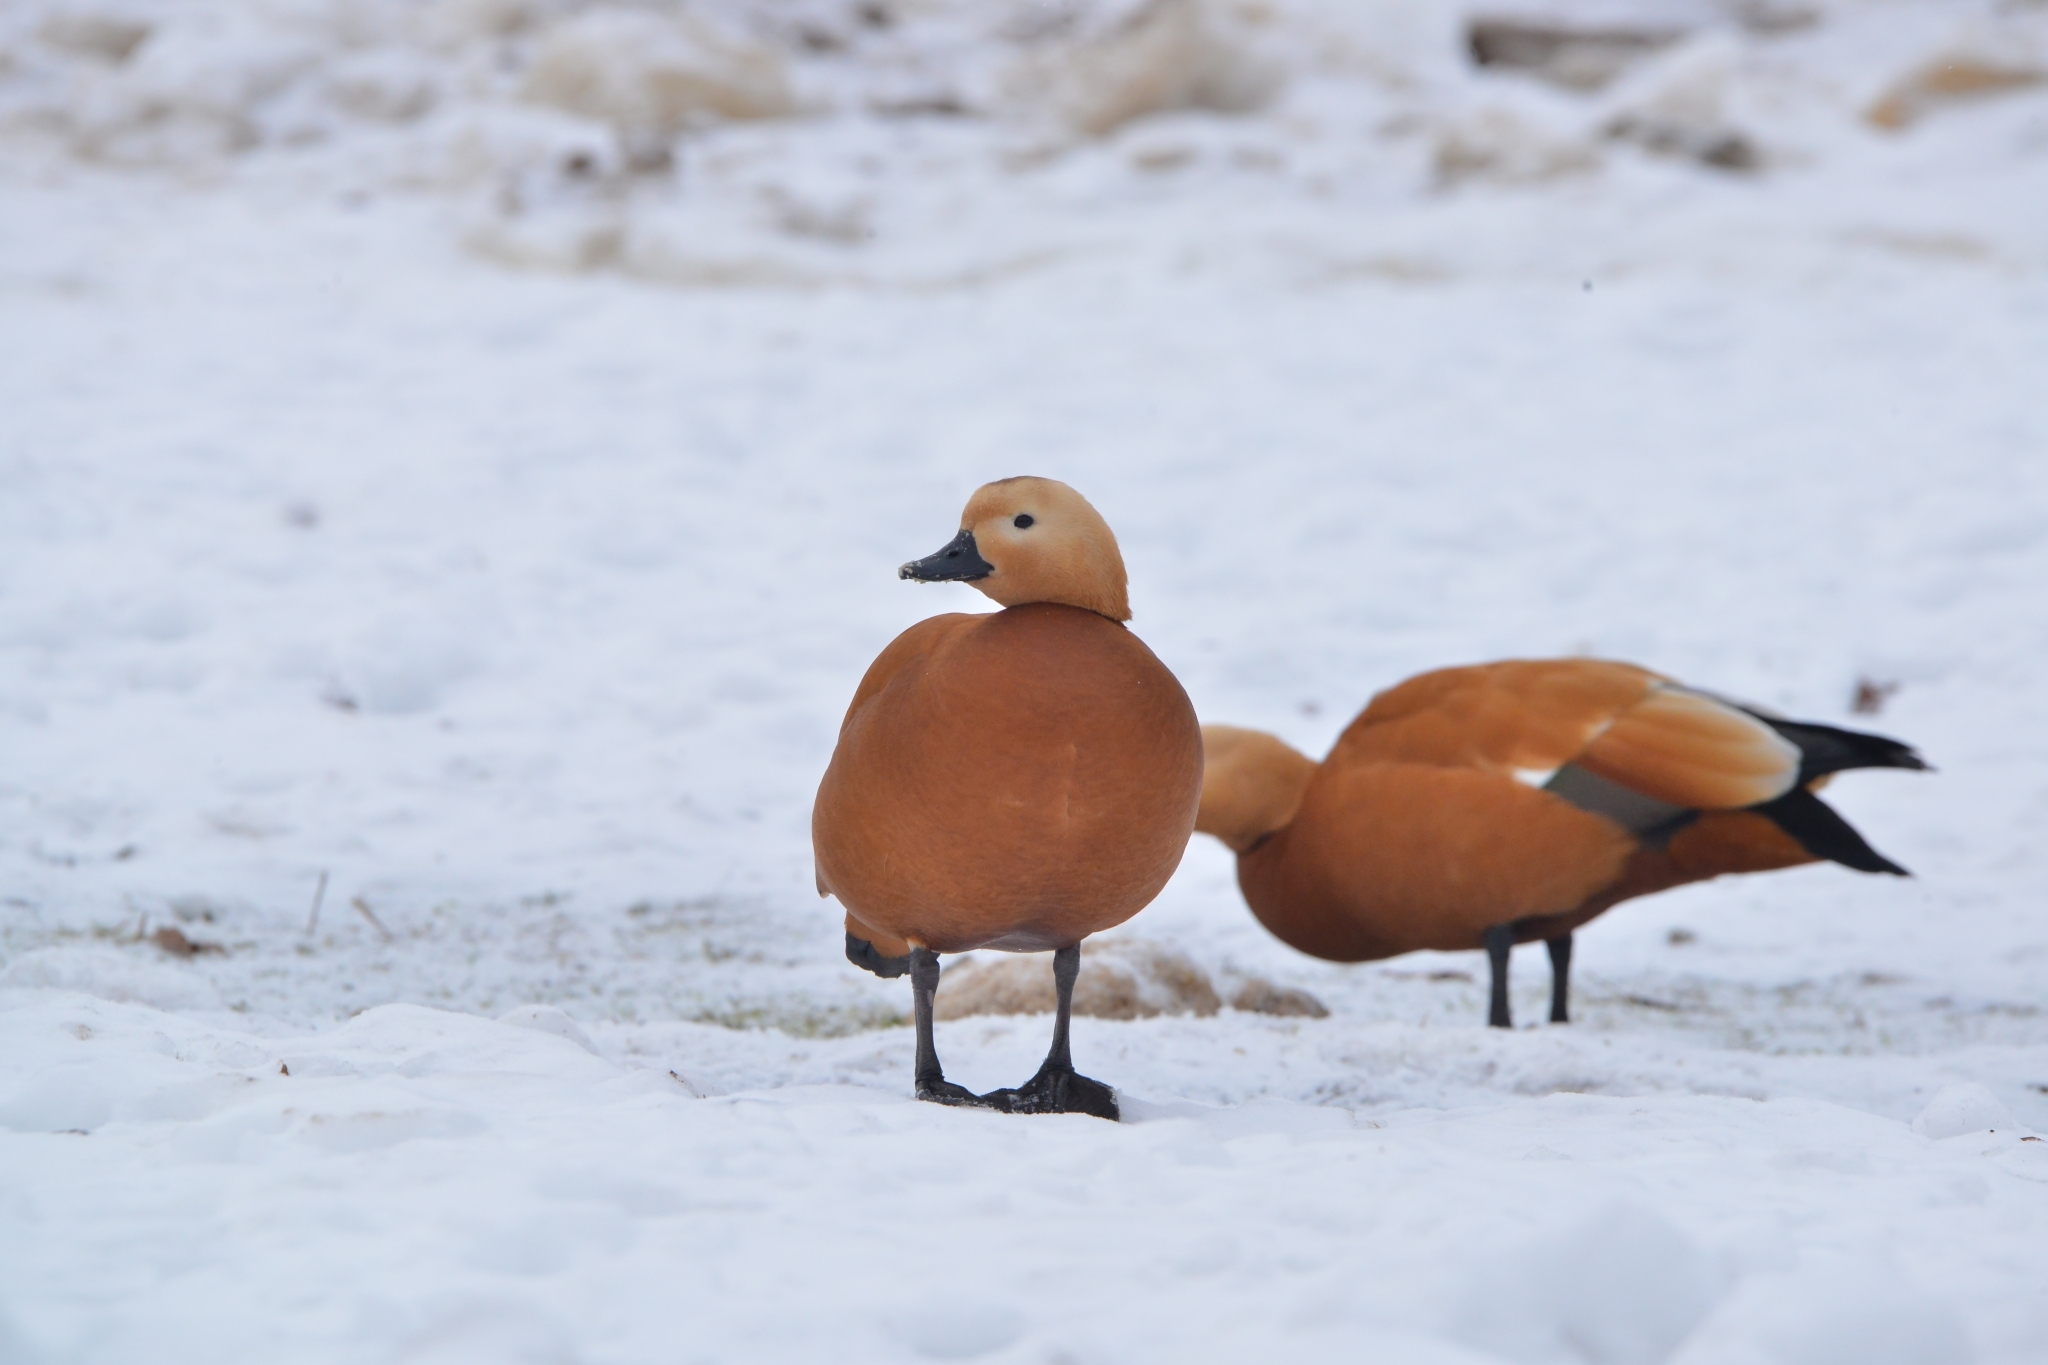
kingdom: Animalia
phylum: Chordata
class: Aves
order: Anseriformes
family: Anatidae
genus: Tadorna
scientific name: Tadorna ferruginea
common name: Ruddy shelduck
